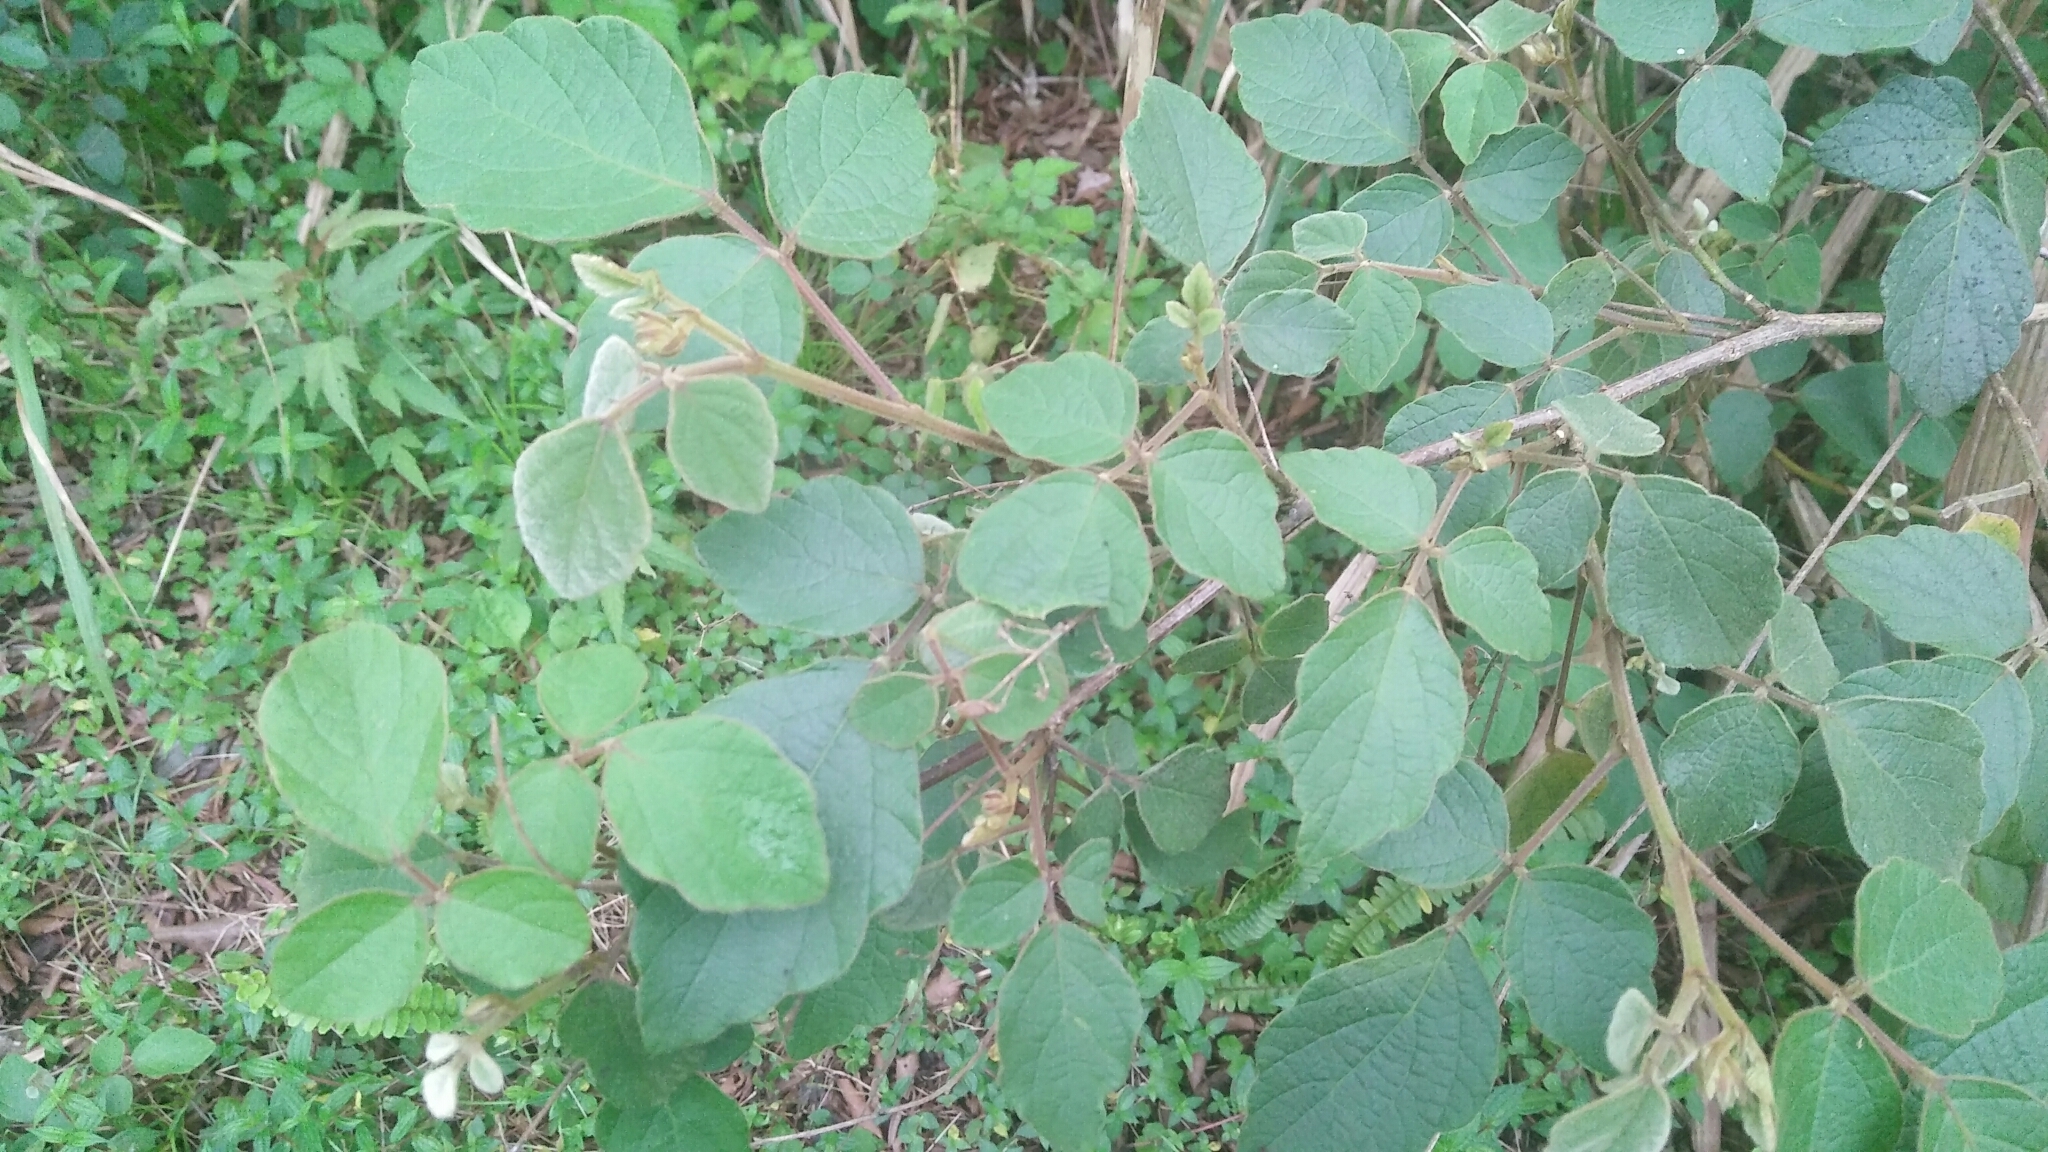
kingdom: Plantae
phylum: Tracheophyta
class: Magnoliopsida
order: Fabales
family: Fabaceae
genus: Puhuaea
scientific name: Puhuaea sequax
